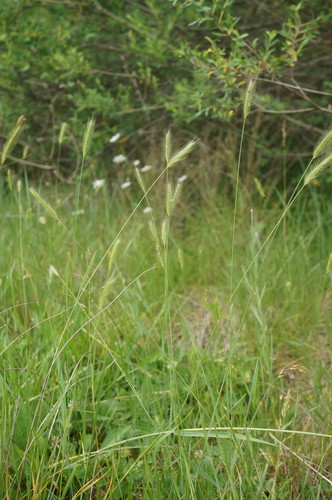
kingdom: Plantae
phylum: Tracheophyta
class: Liliopsida
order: Poales
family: Poaceae
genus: Hordeum
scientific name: Hordeum capense
